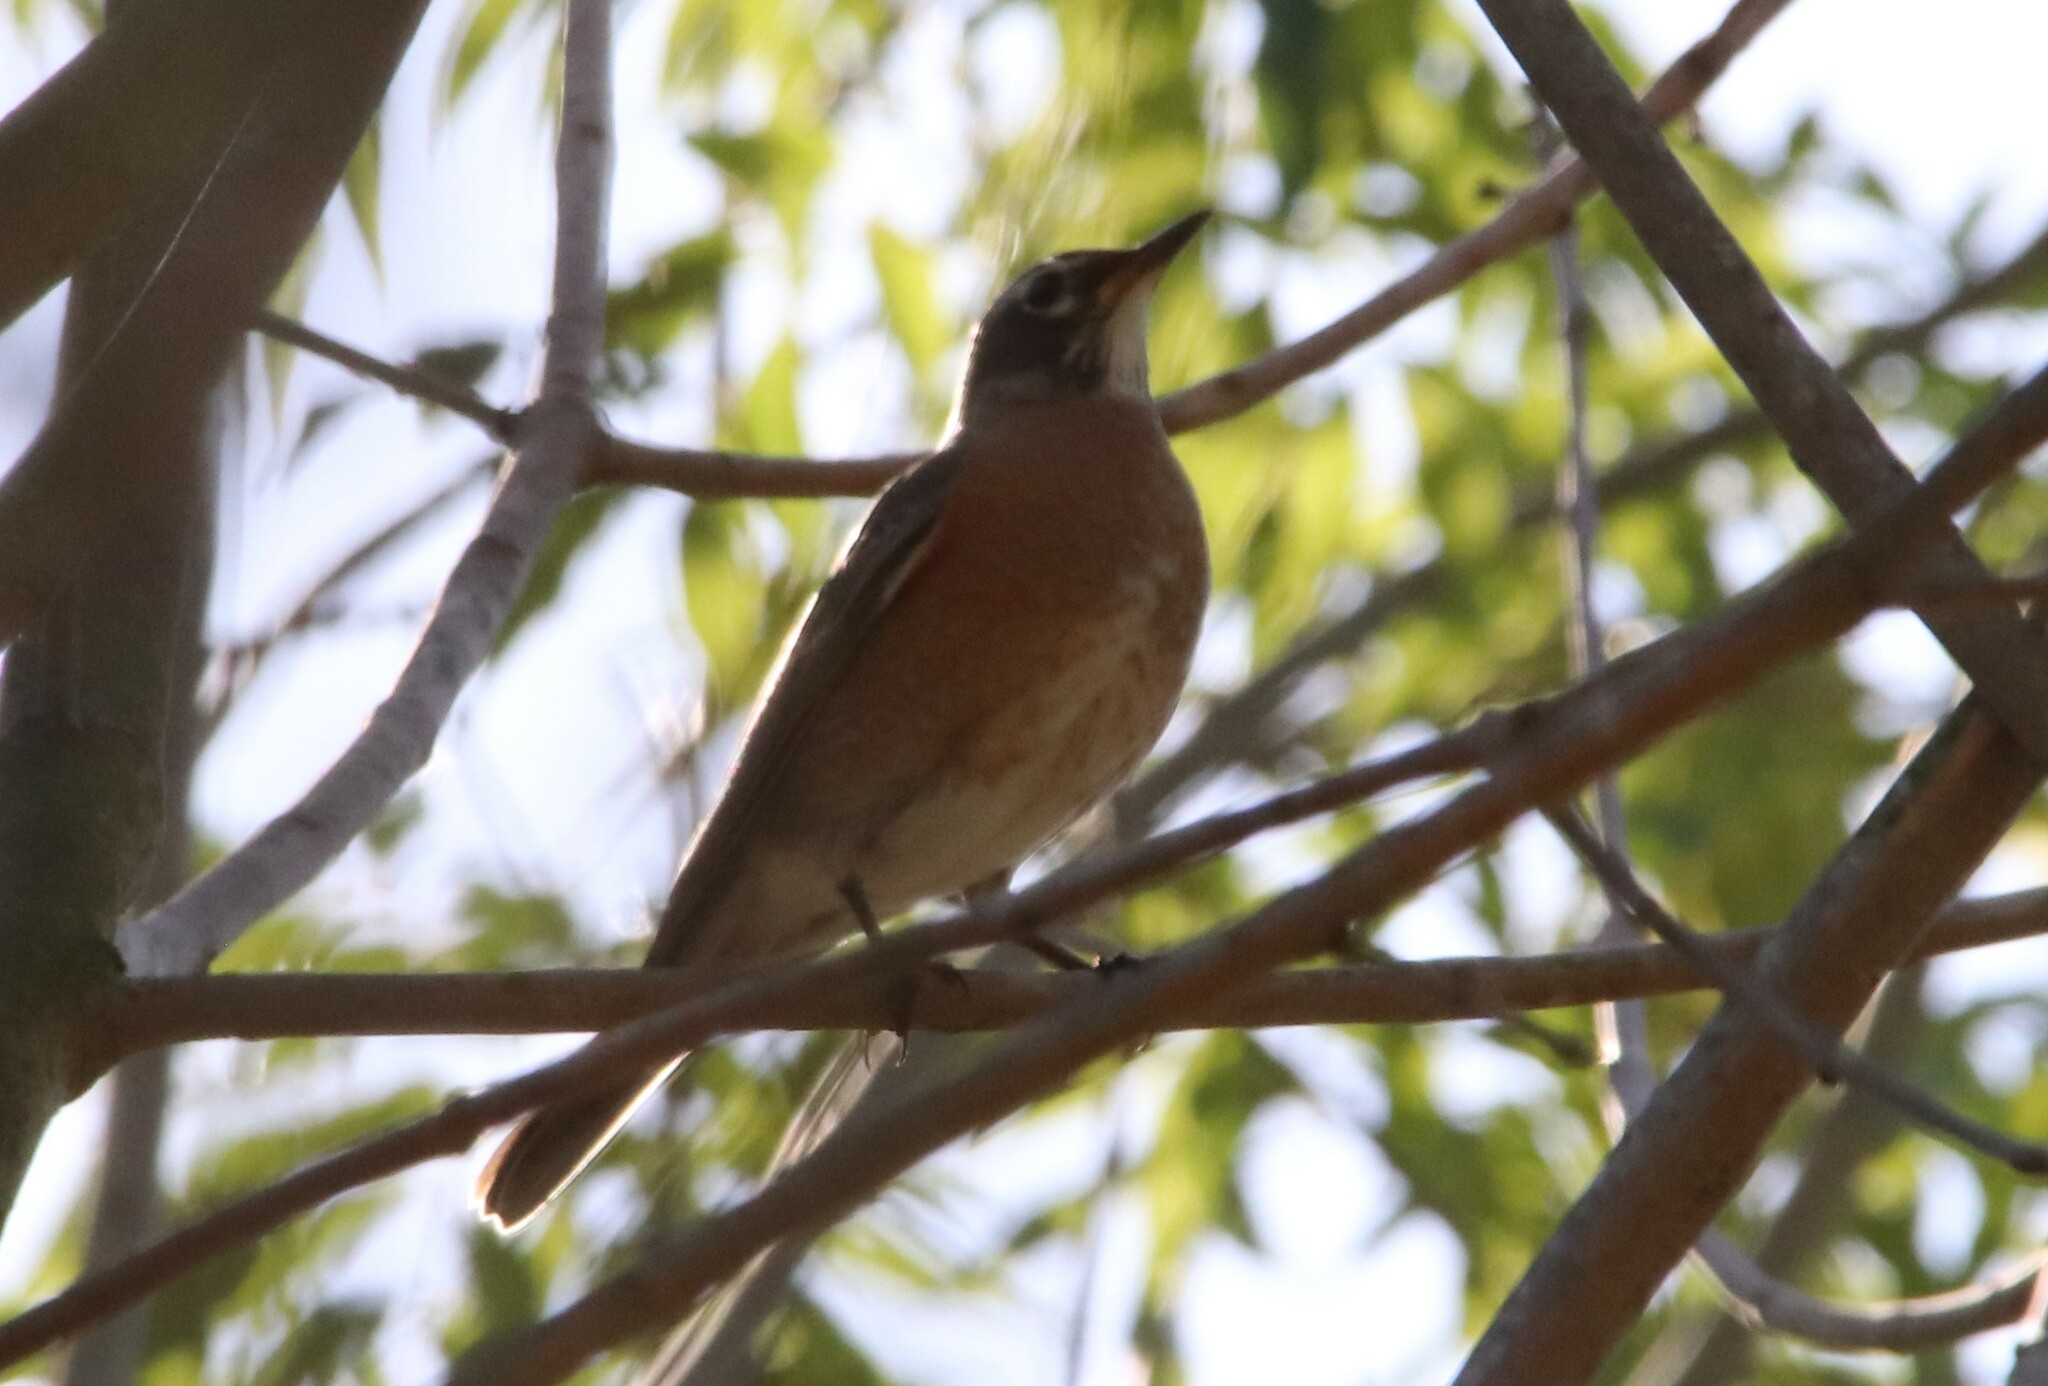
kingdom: Animalia
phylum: Chordata
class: Aves
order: Passeriformes
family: Turdidae
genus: Turdus
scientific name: Turdus migratorius
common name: American robin
